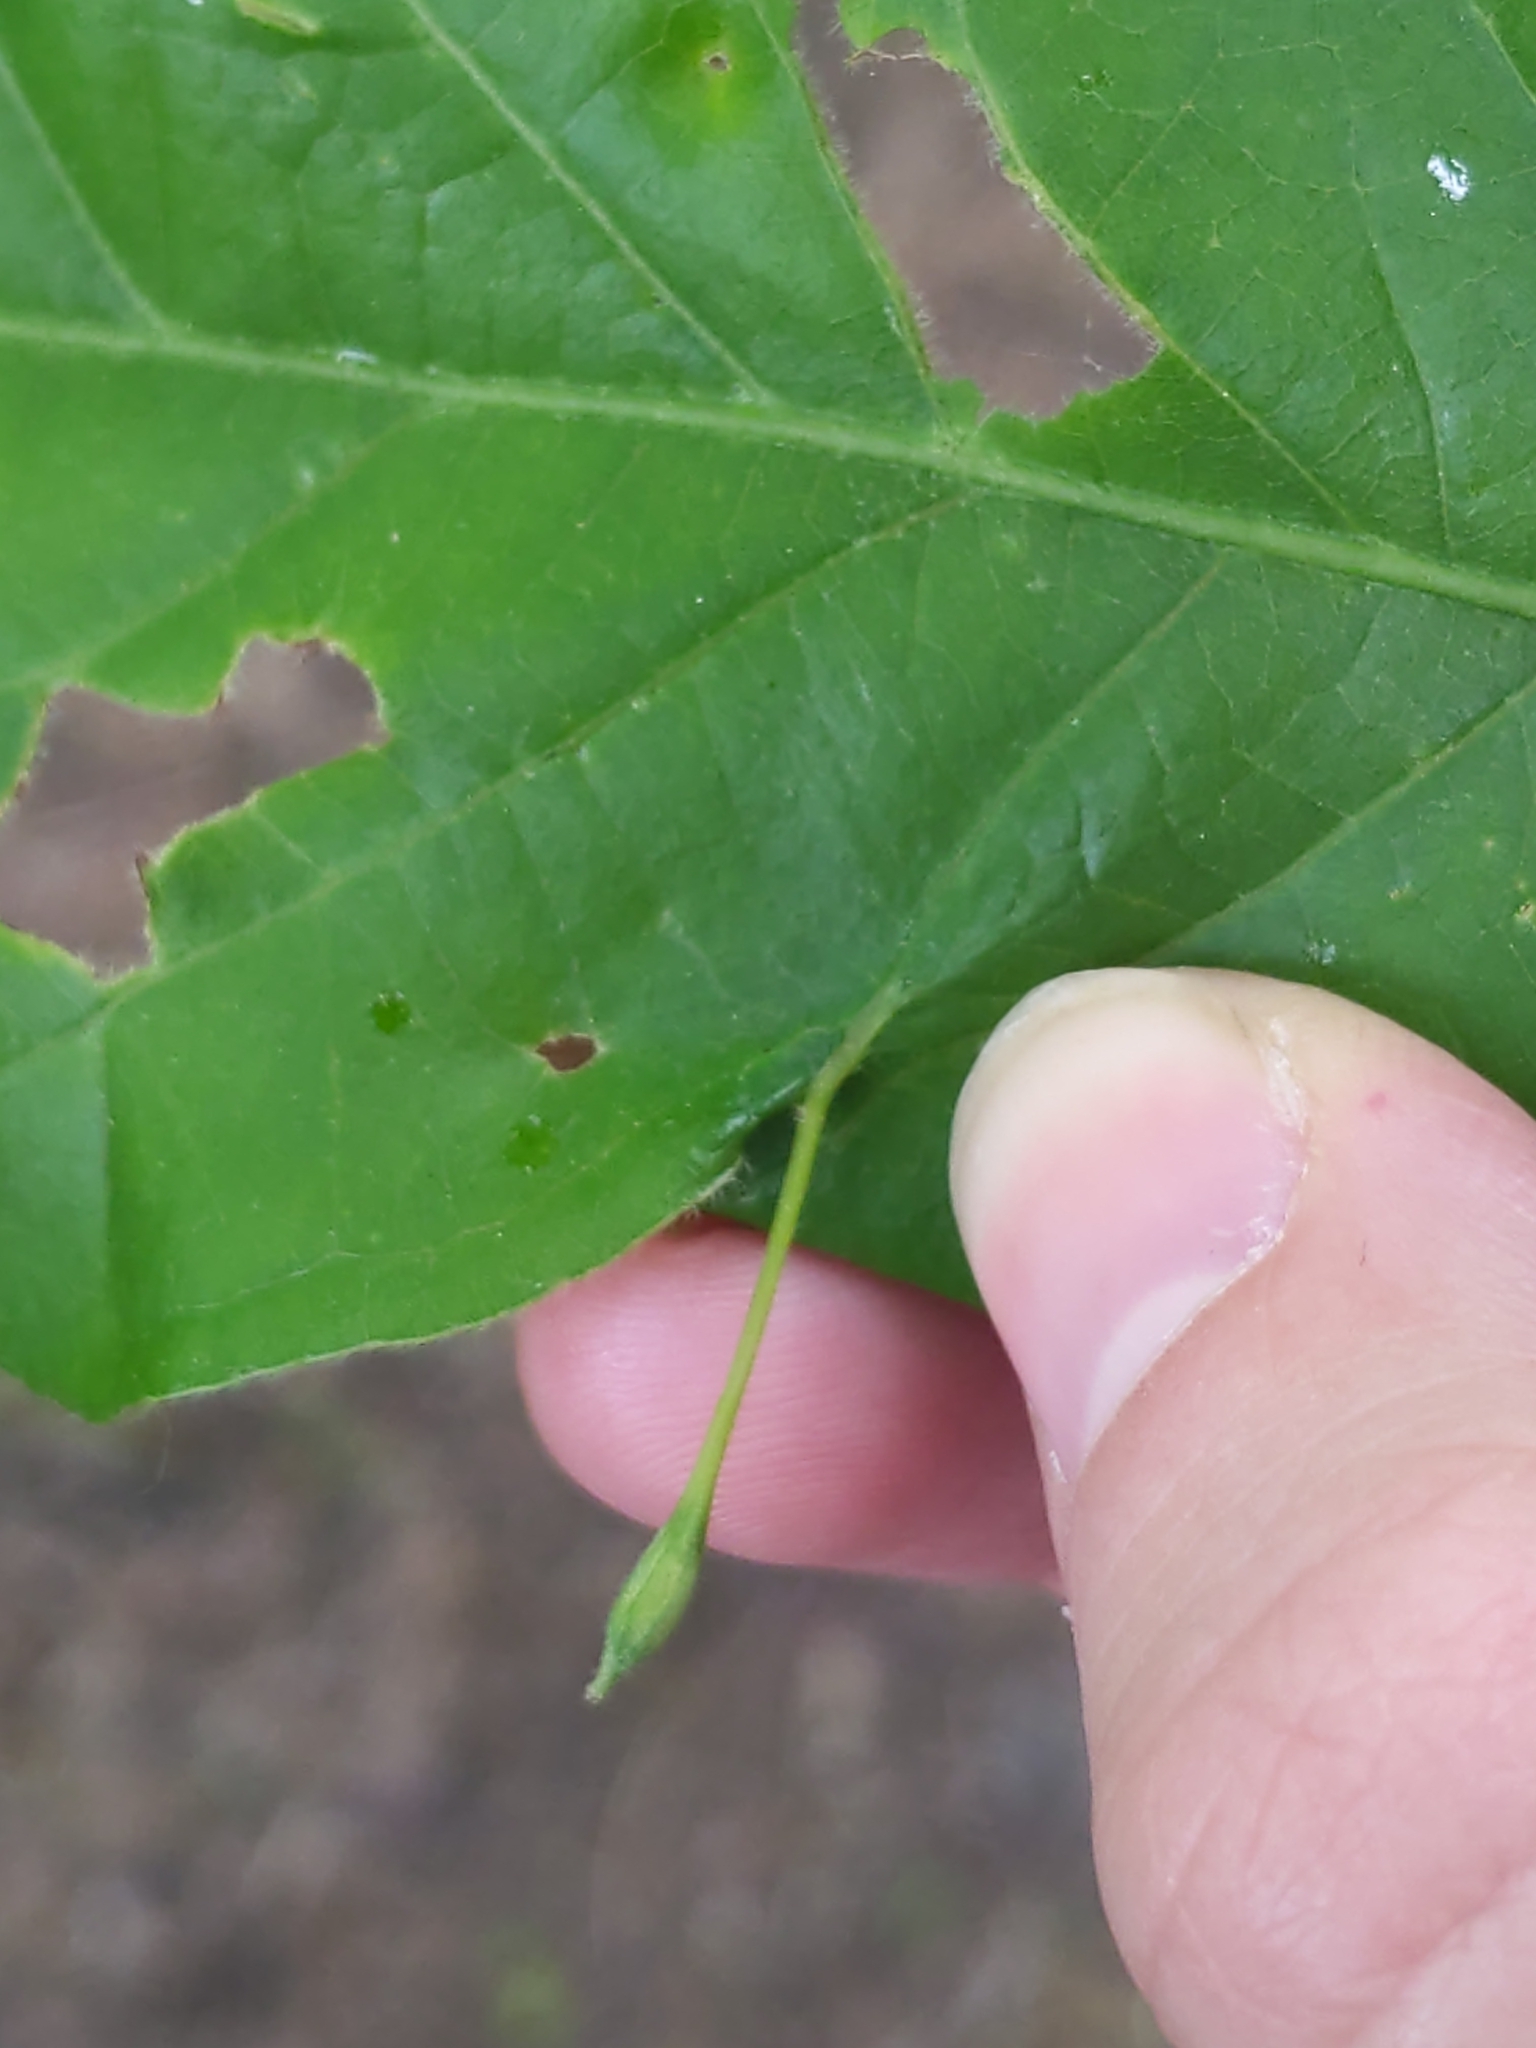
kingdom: Animalia
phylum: Arthropoda
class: Insecta
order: Hymenoptera
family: Cynipidae
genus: Andricus
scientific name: Andricus
